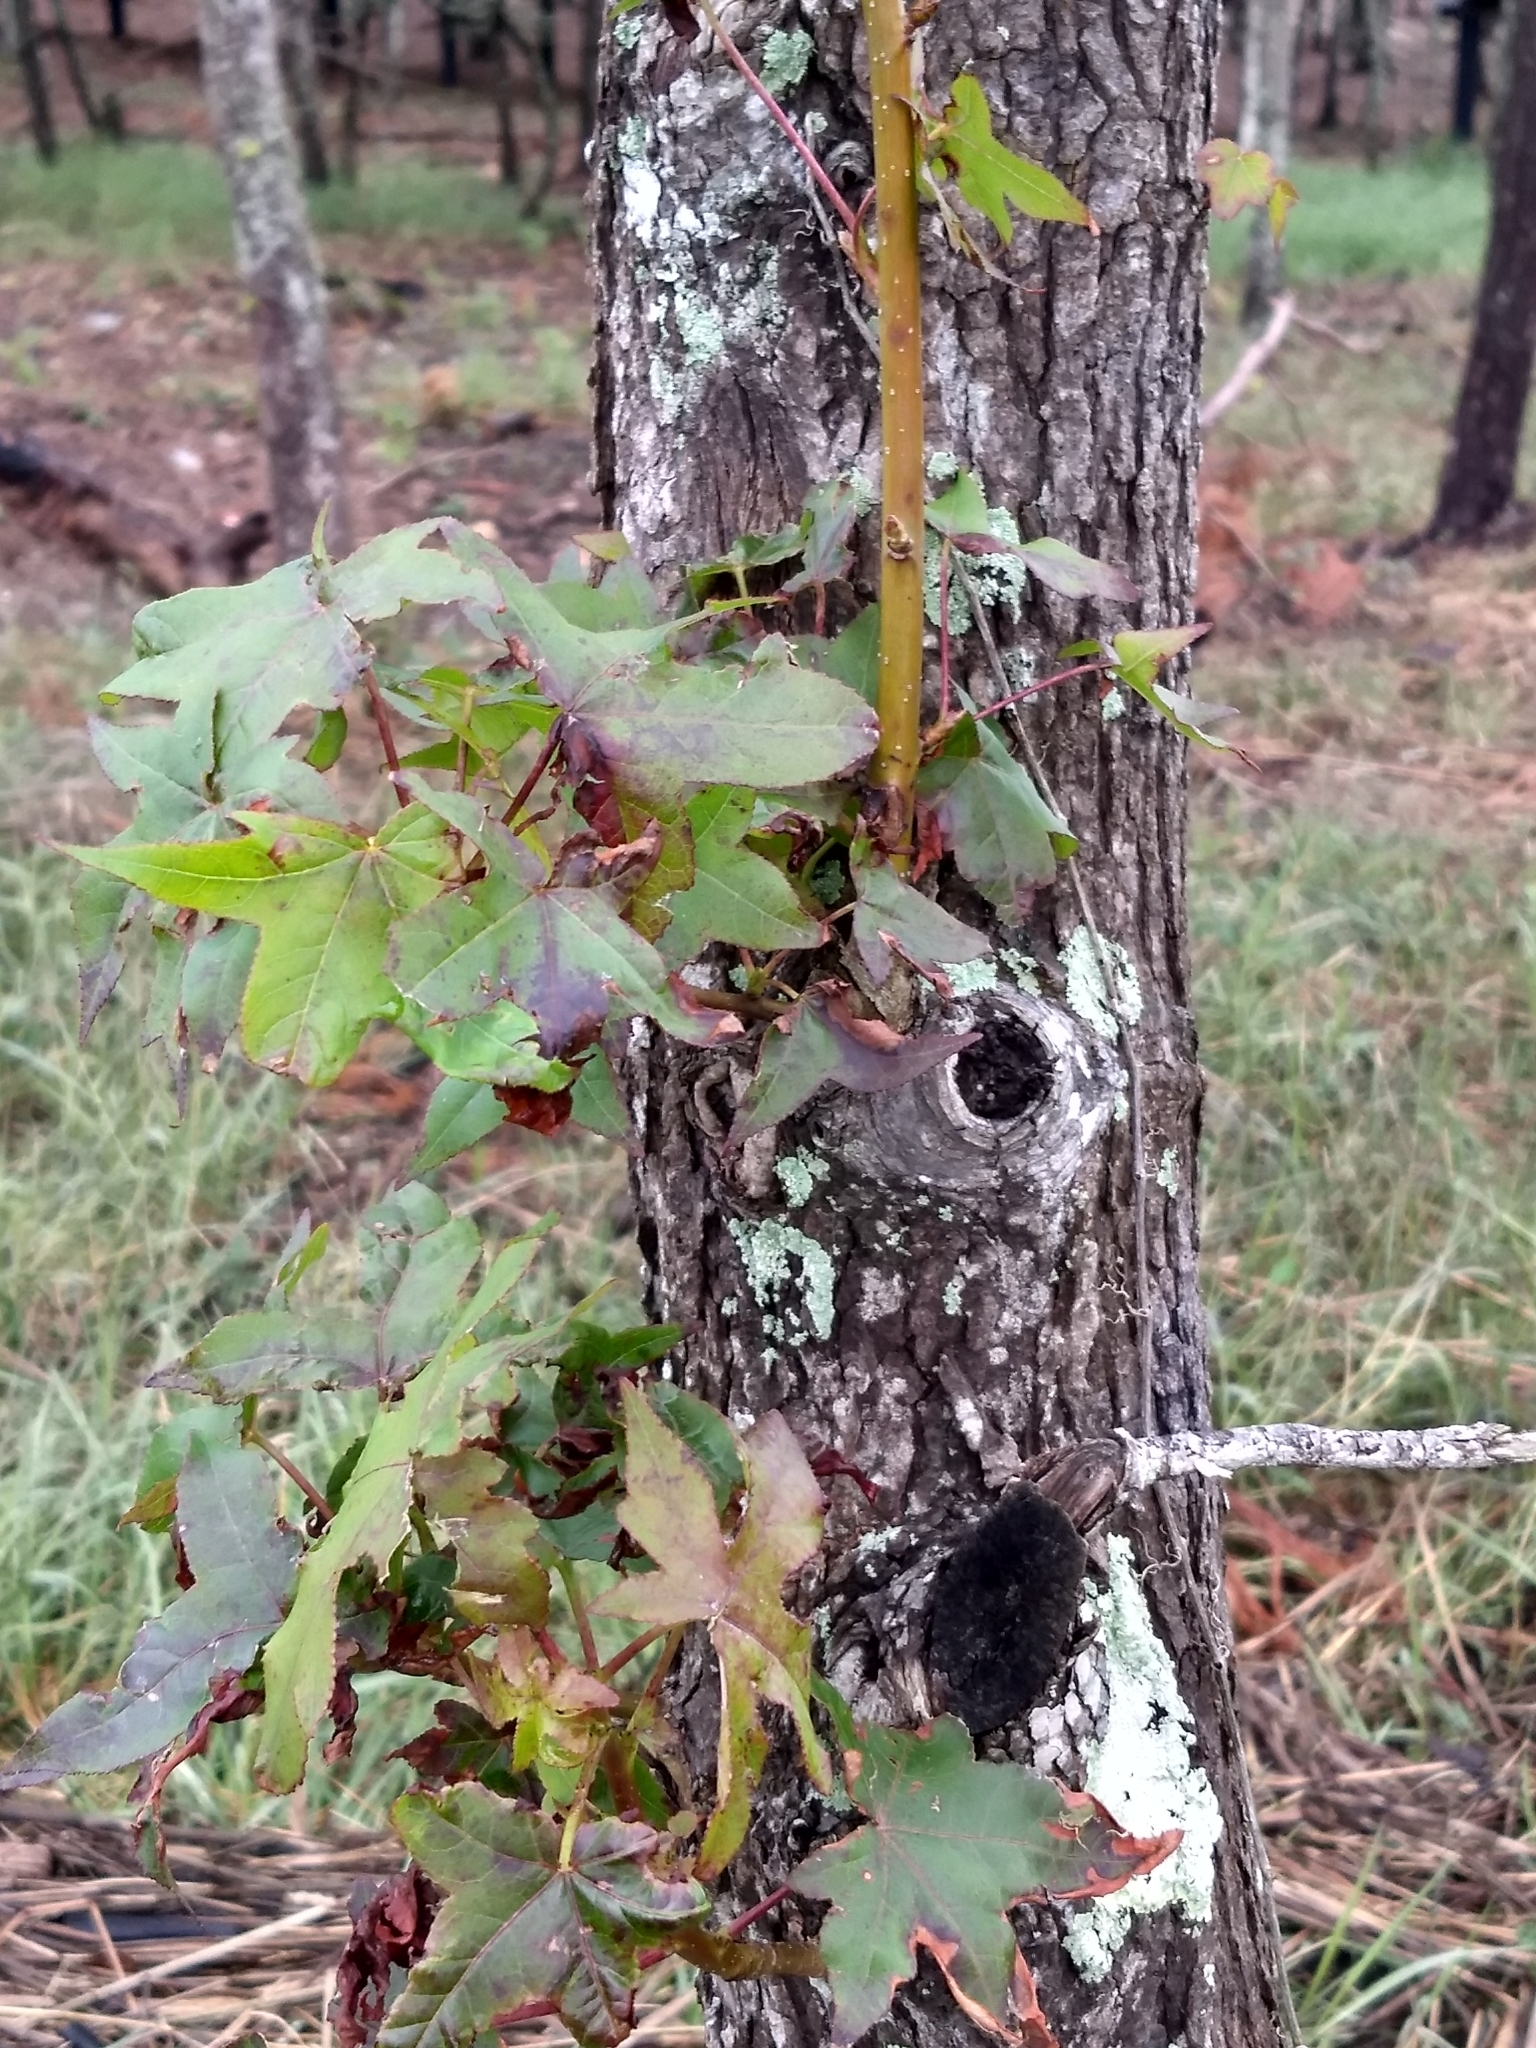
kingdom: Plantae
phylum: Tracheophyta
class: Magnoliopsida
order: Saxifragales
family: Altingiaceae
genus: Liquidambar
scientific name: Liquidambar styraciflua
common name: Sweet gum
